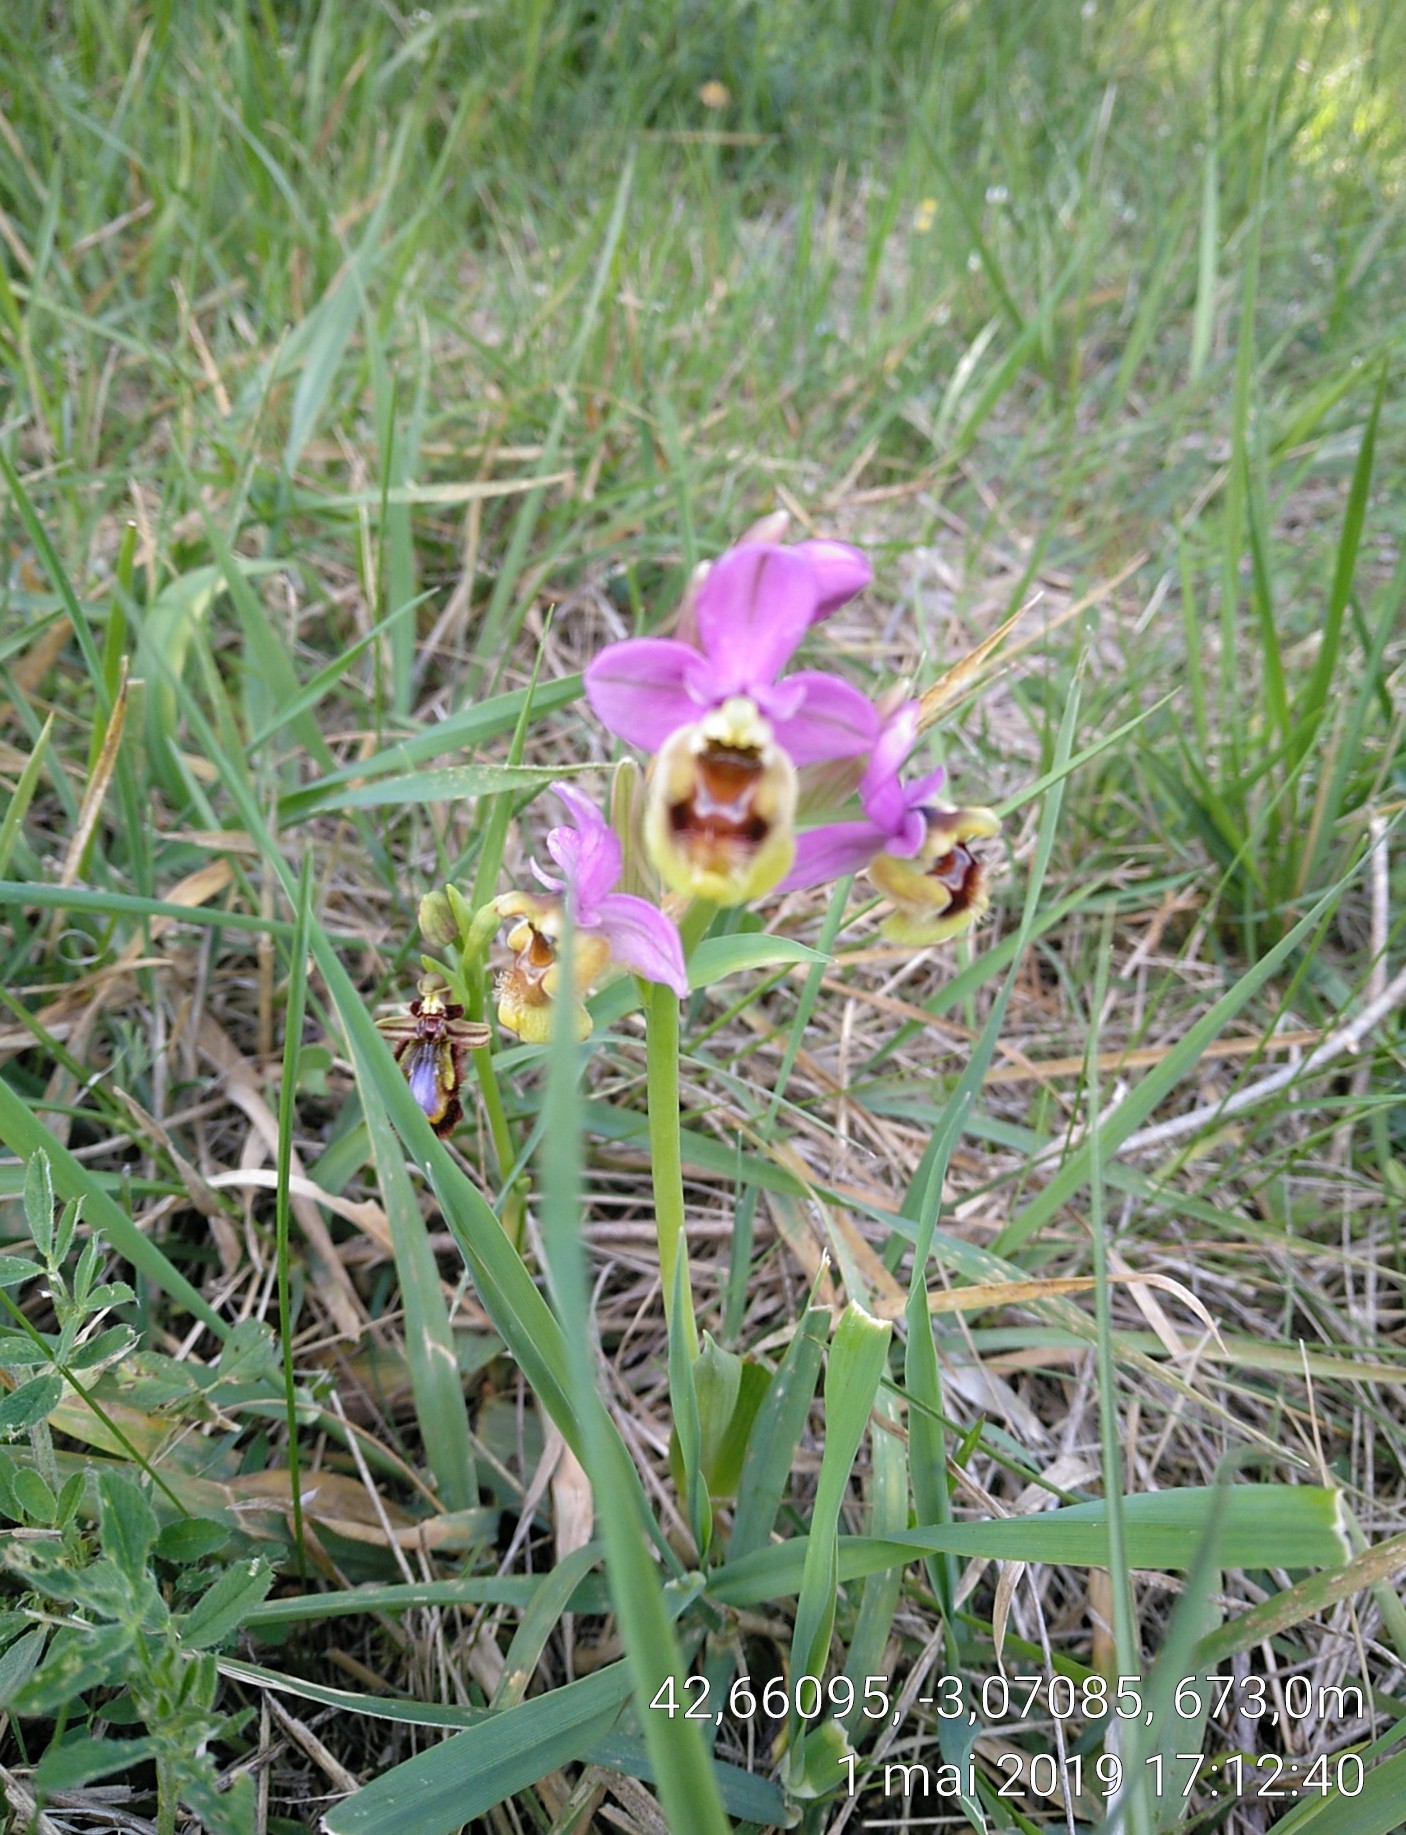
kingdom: Plantae
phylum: Tracheophyta
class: Liliopsida
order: Asparagales
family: Orchidaceae
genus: Ophrys
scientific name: Ophrys tenthredinifera
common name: Sawfly orchid
